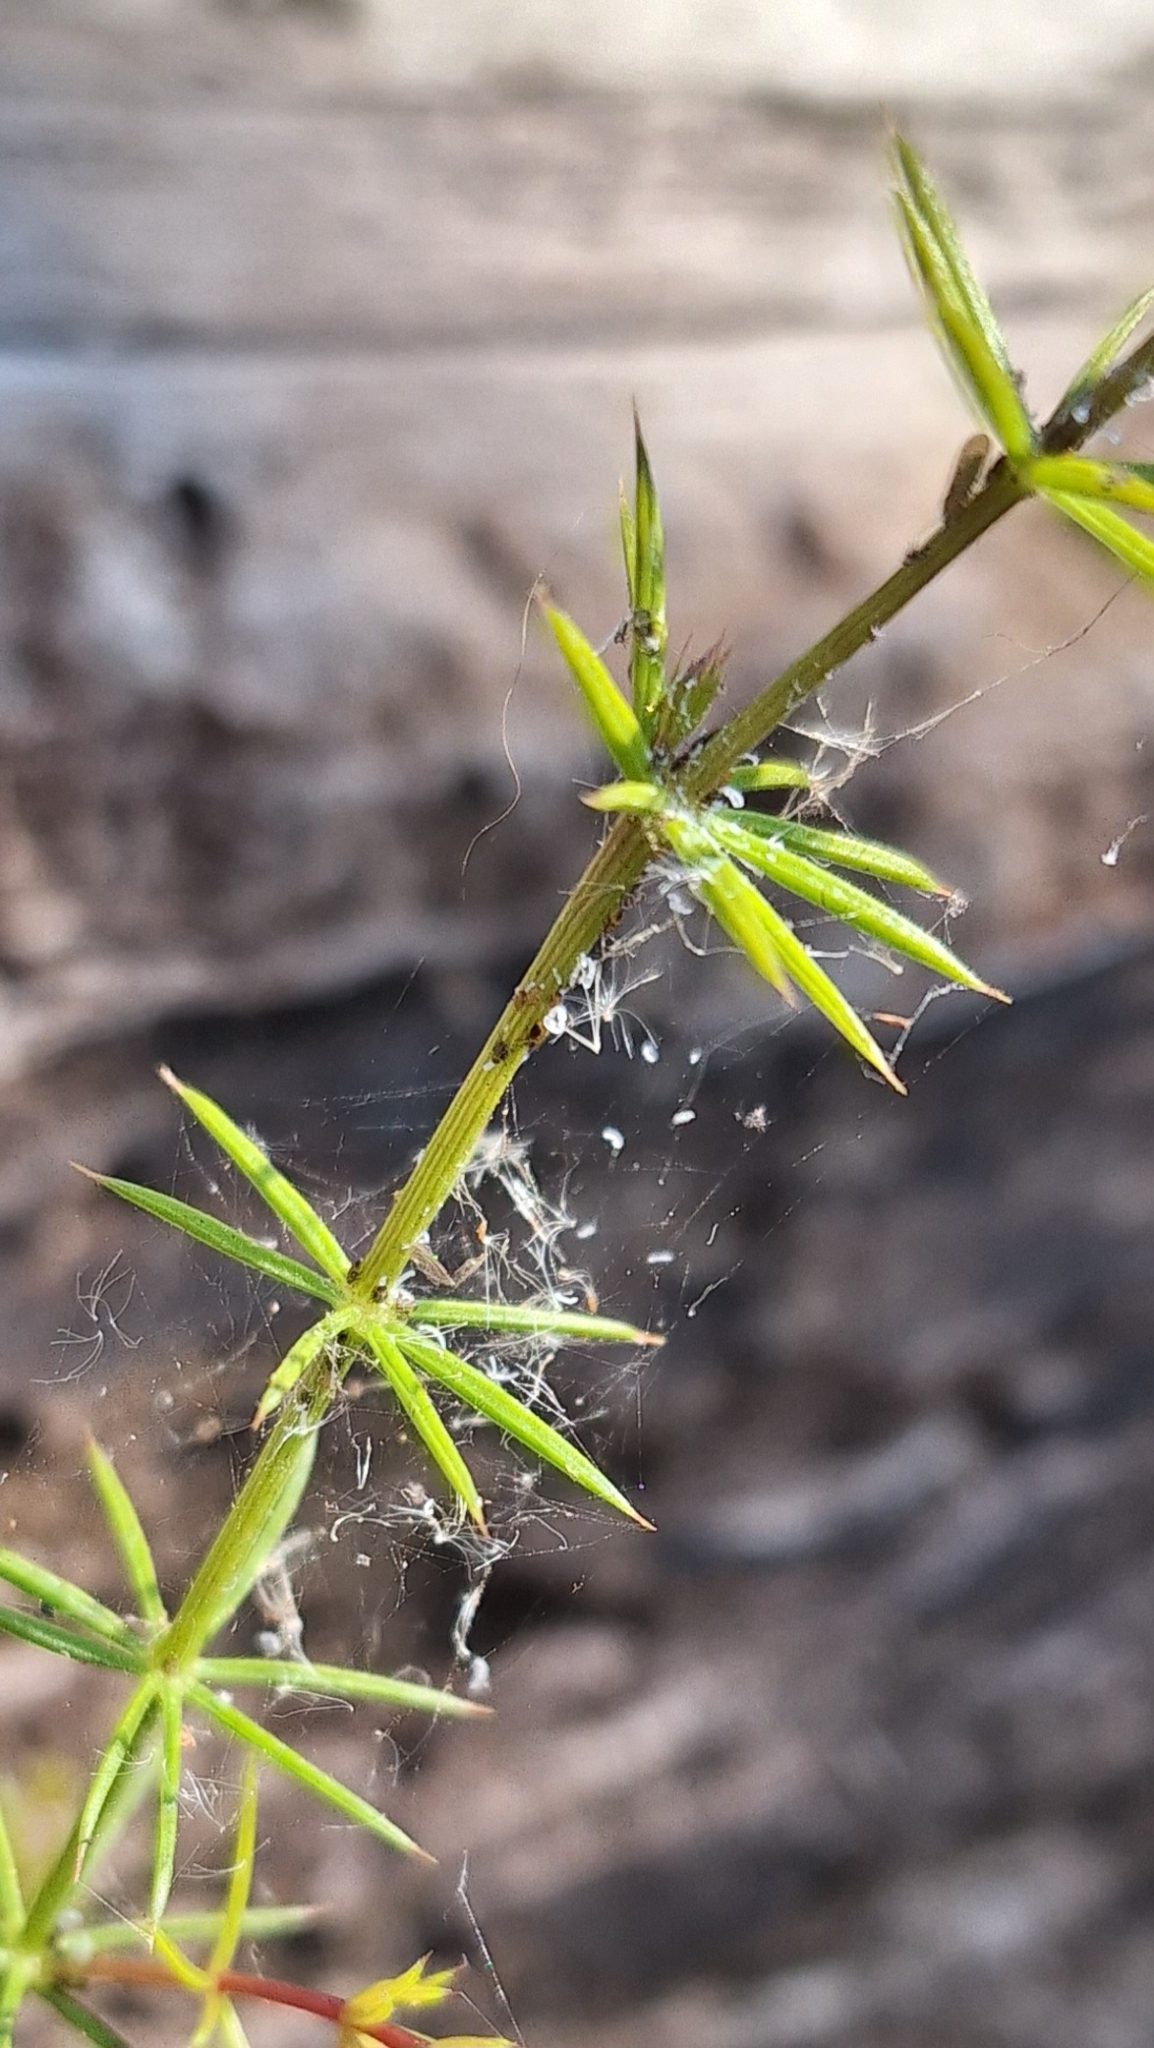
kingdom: Plantae
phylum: Tracheophyta
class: Magnoliopsida
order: Fabales
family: Fabaceae
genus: Acacia
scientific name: Acacia verticillata
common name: Prickly moses
